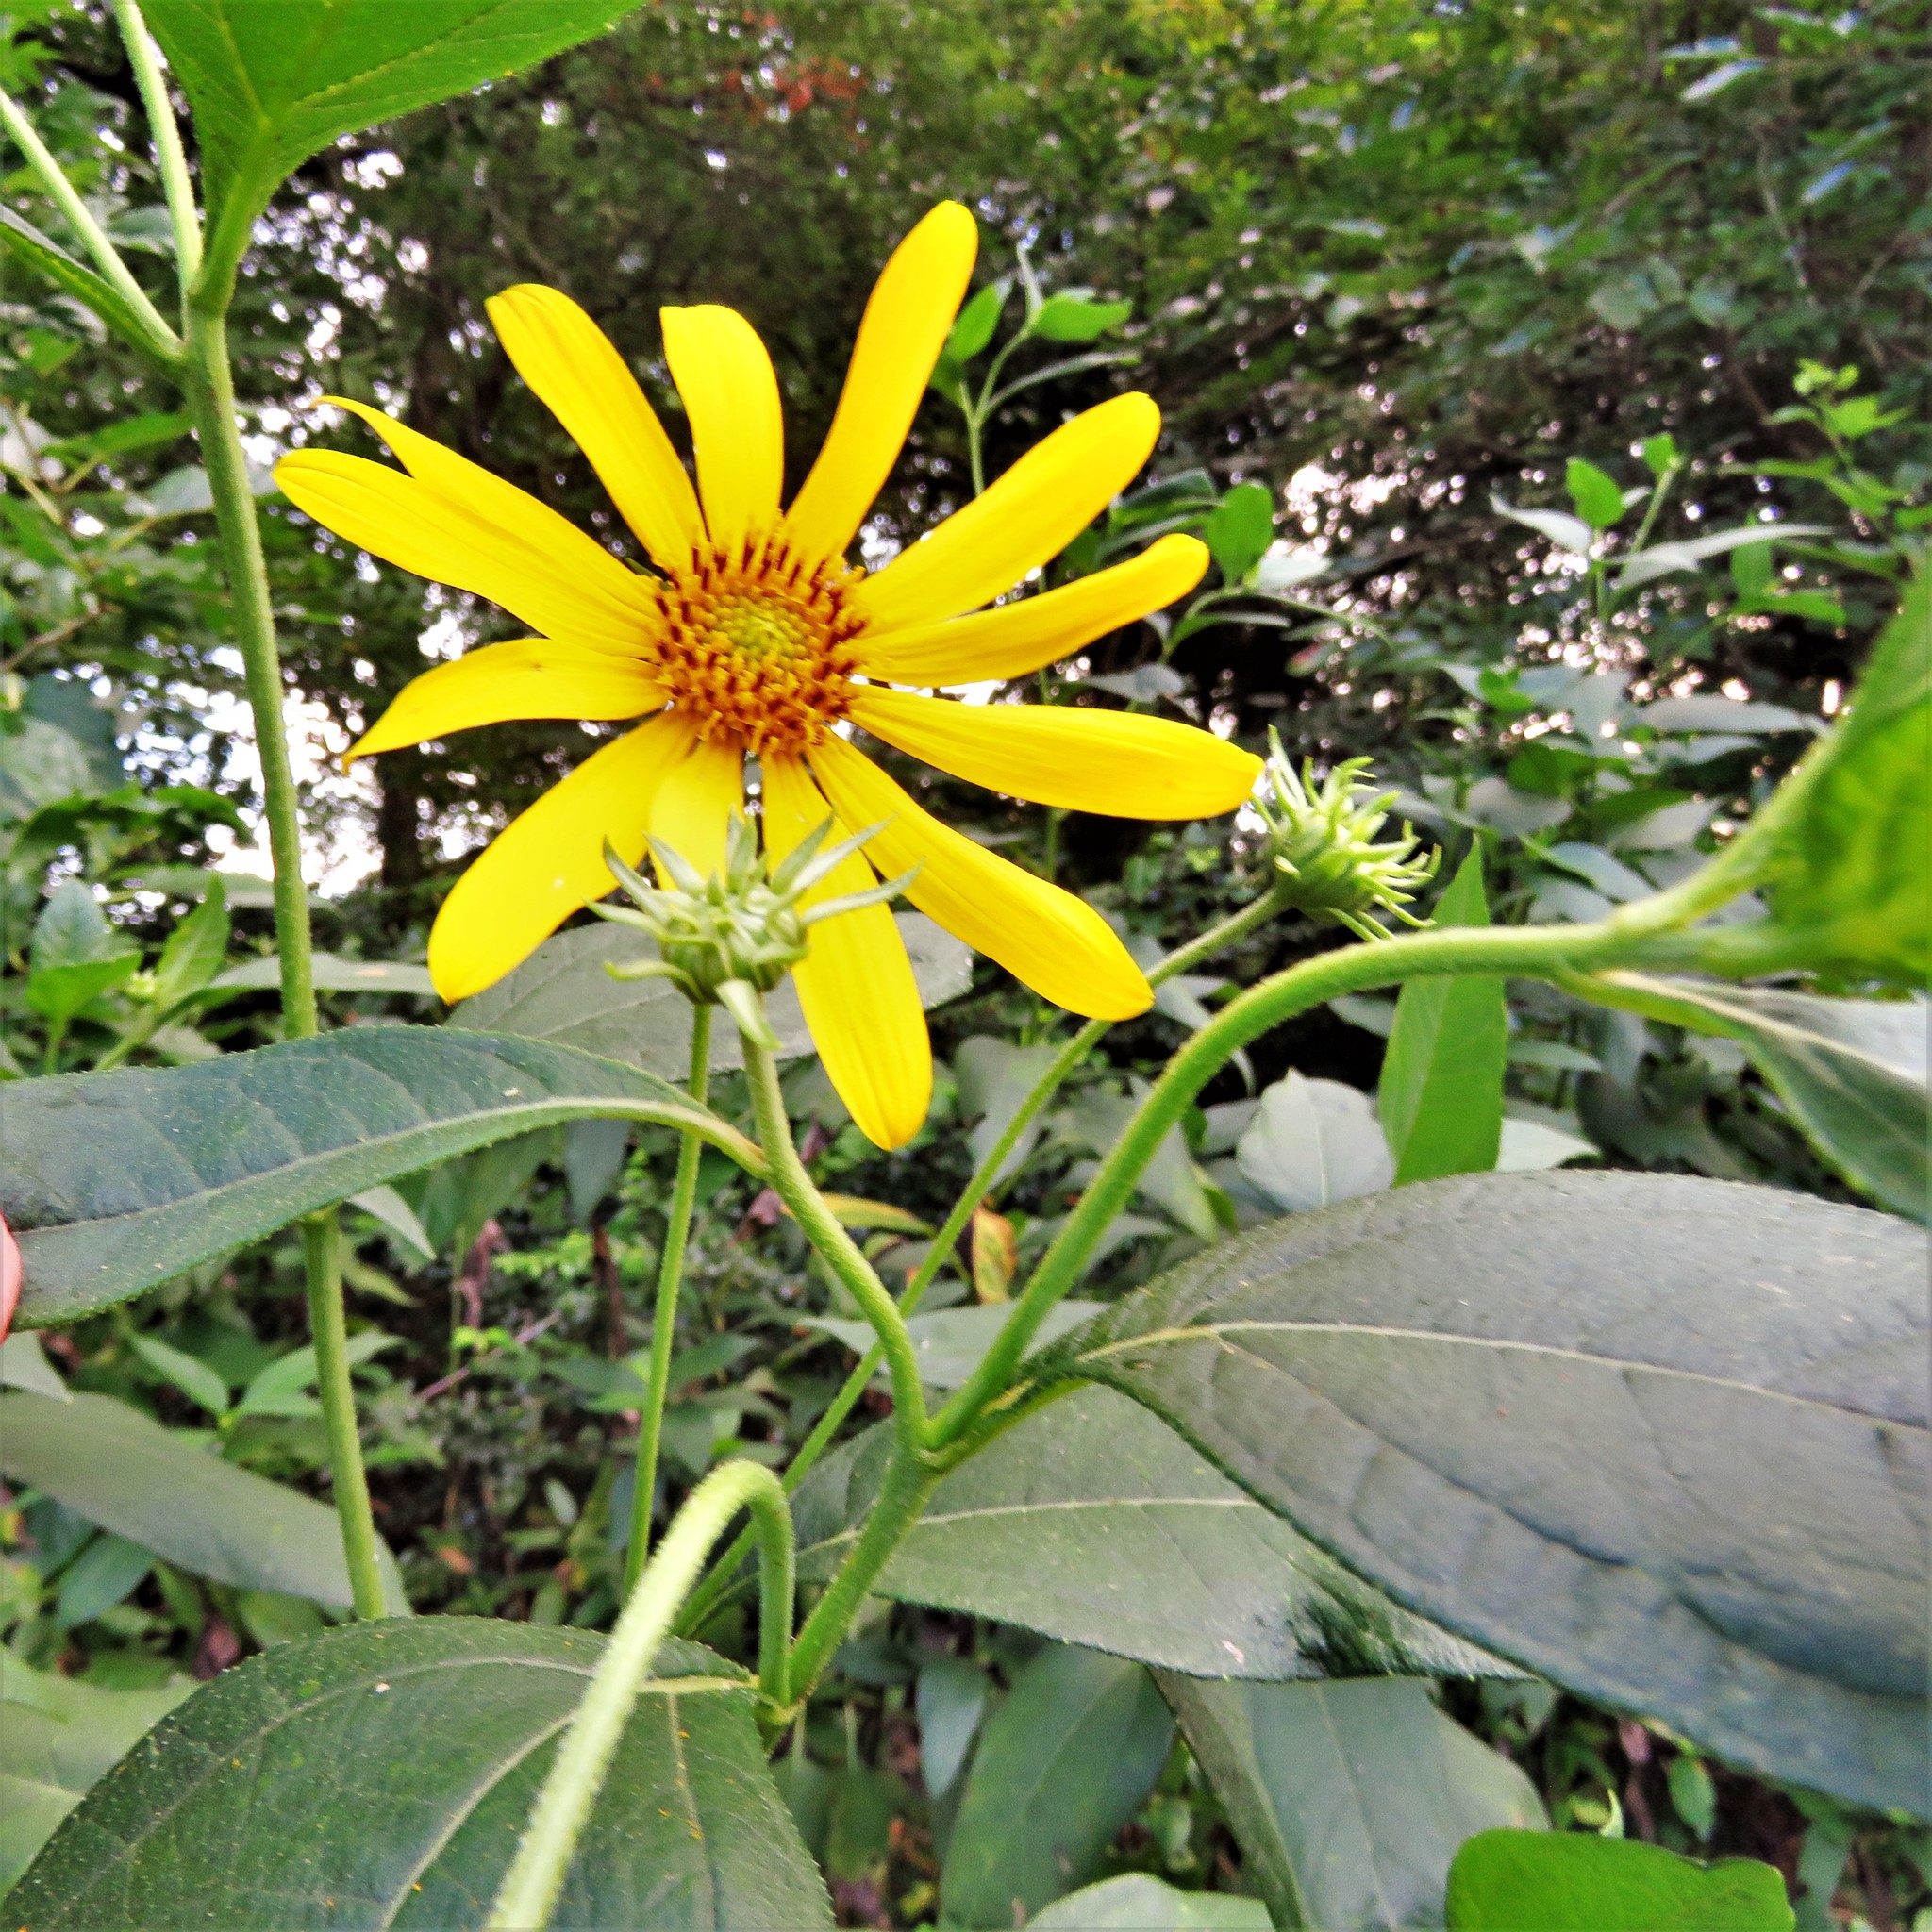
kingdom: Plantae
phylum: Tracheophyta
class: Magnoliopsida
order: Asterales
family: Asteraceae
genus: Helianthus
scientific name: Helianthus tuberosus
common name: Jerusalem artichoke
